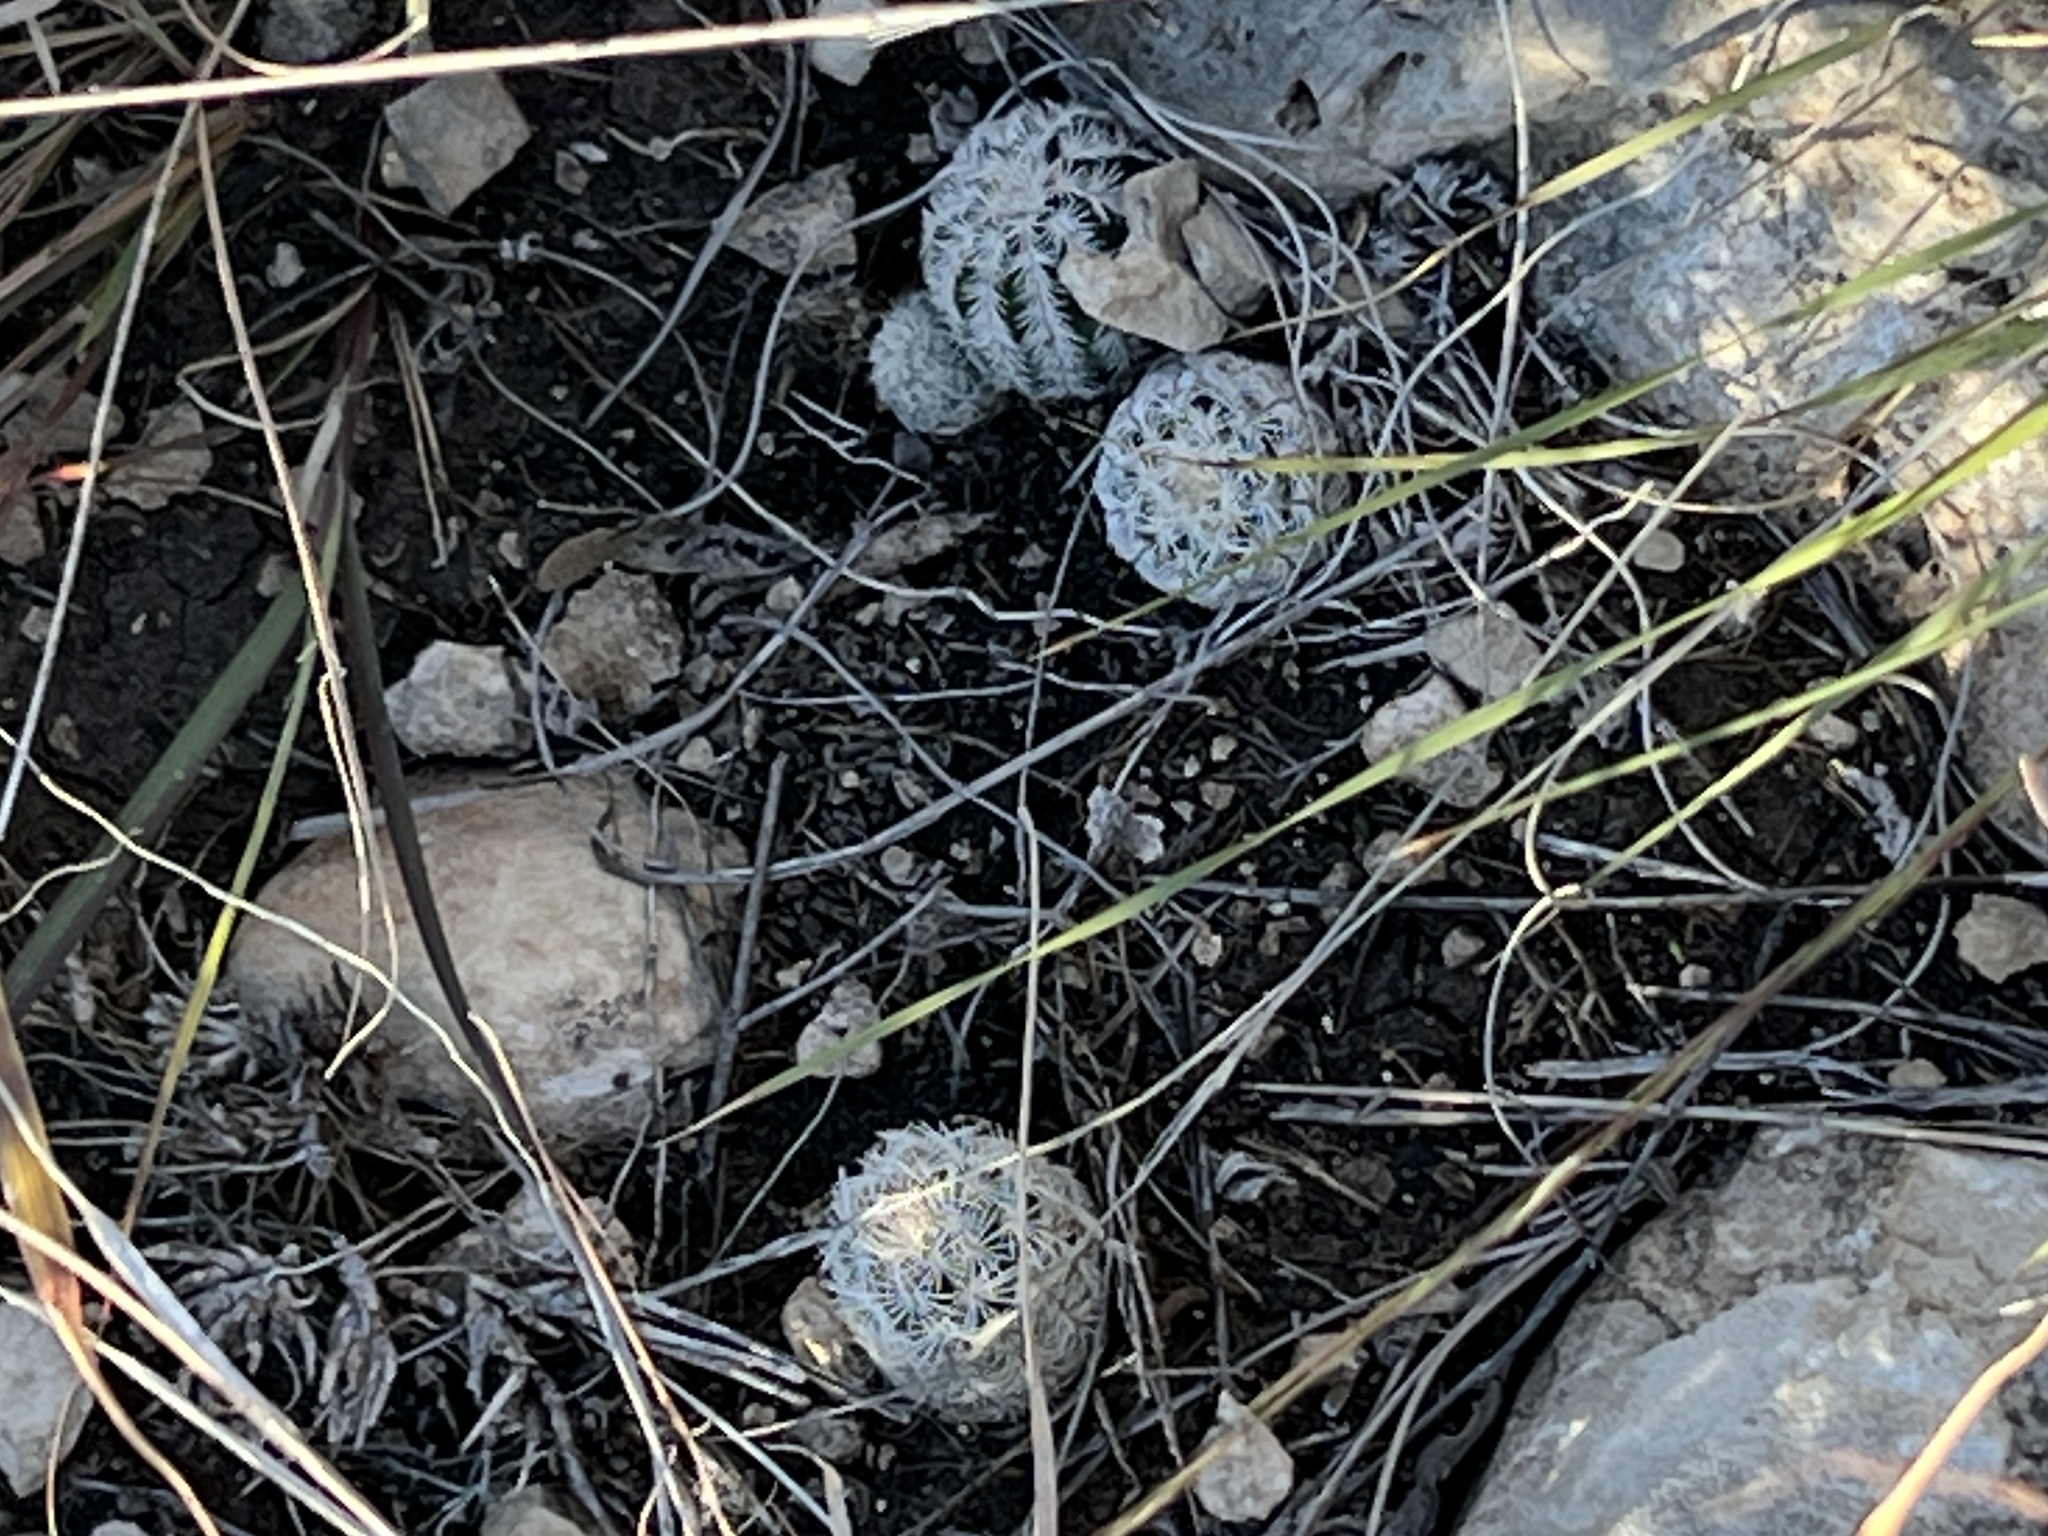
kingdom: Plantae
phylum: Tracheophyta
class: Magnoliopsida
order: Caryophyllales
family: Cactaceae
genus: Echinocereus
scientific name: Echinocereus reichenbachii
